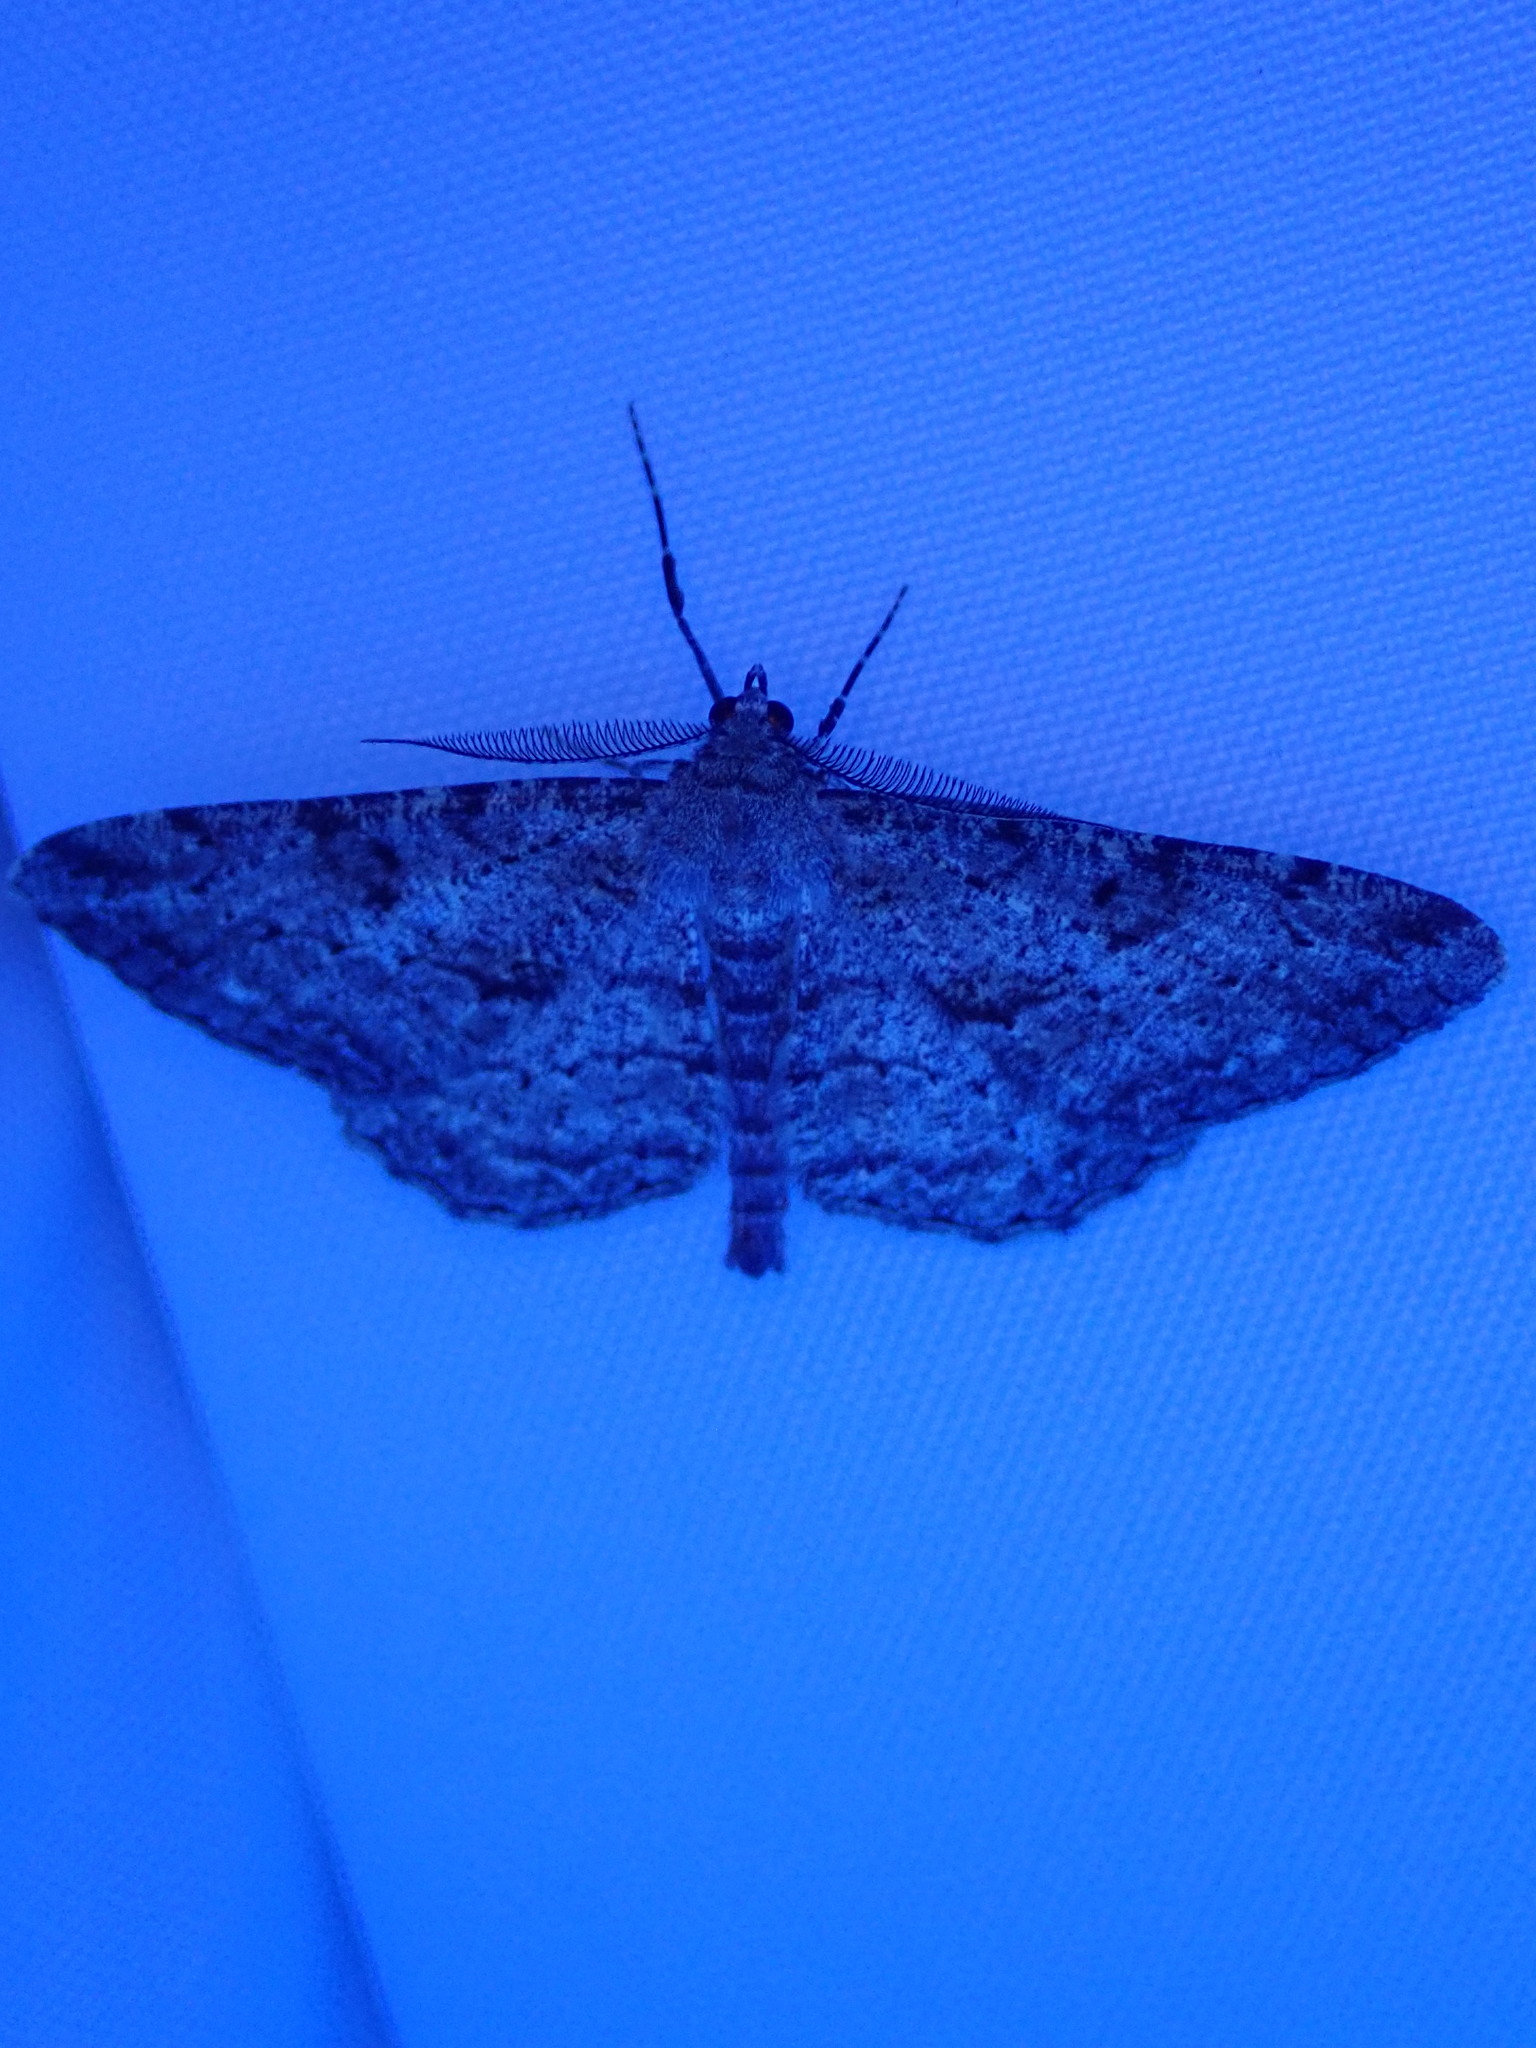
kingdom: Animalia
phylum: Arthropoda
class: Insecta
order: Lepidoptera
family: Geometridae
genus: Peribatodes
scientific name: Peribatodes rhomboidaria
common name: Willow beauty
